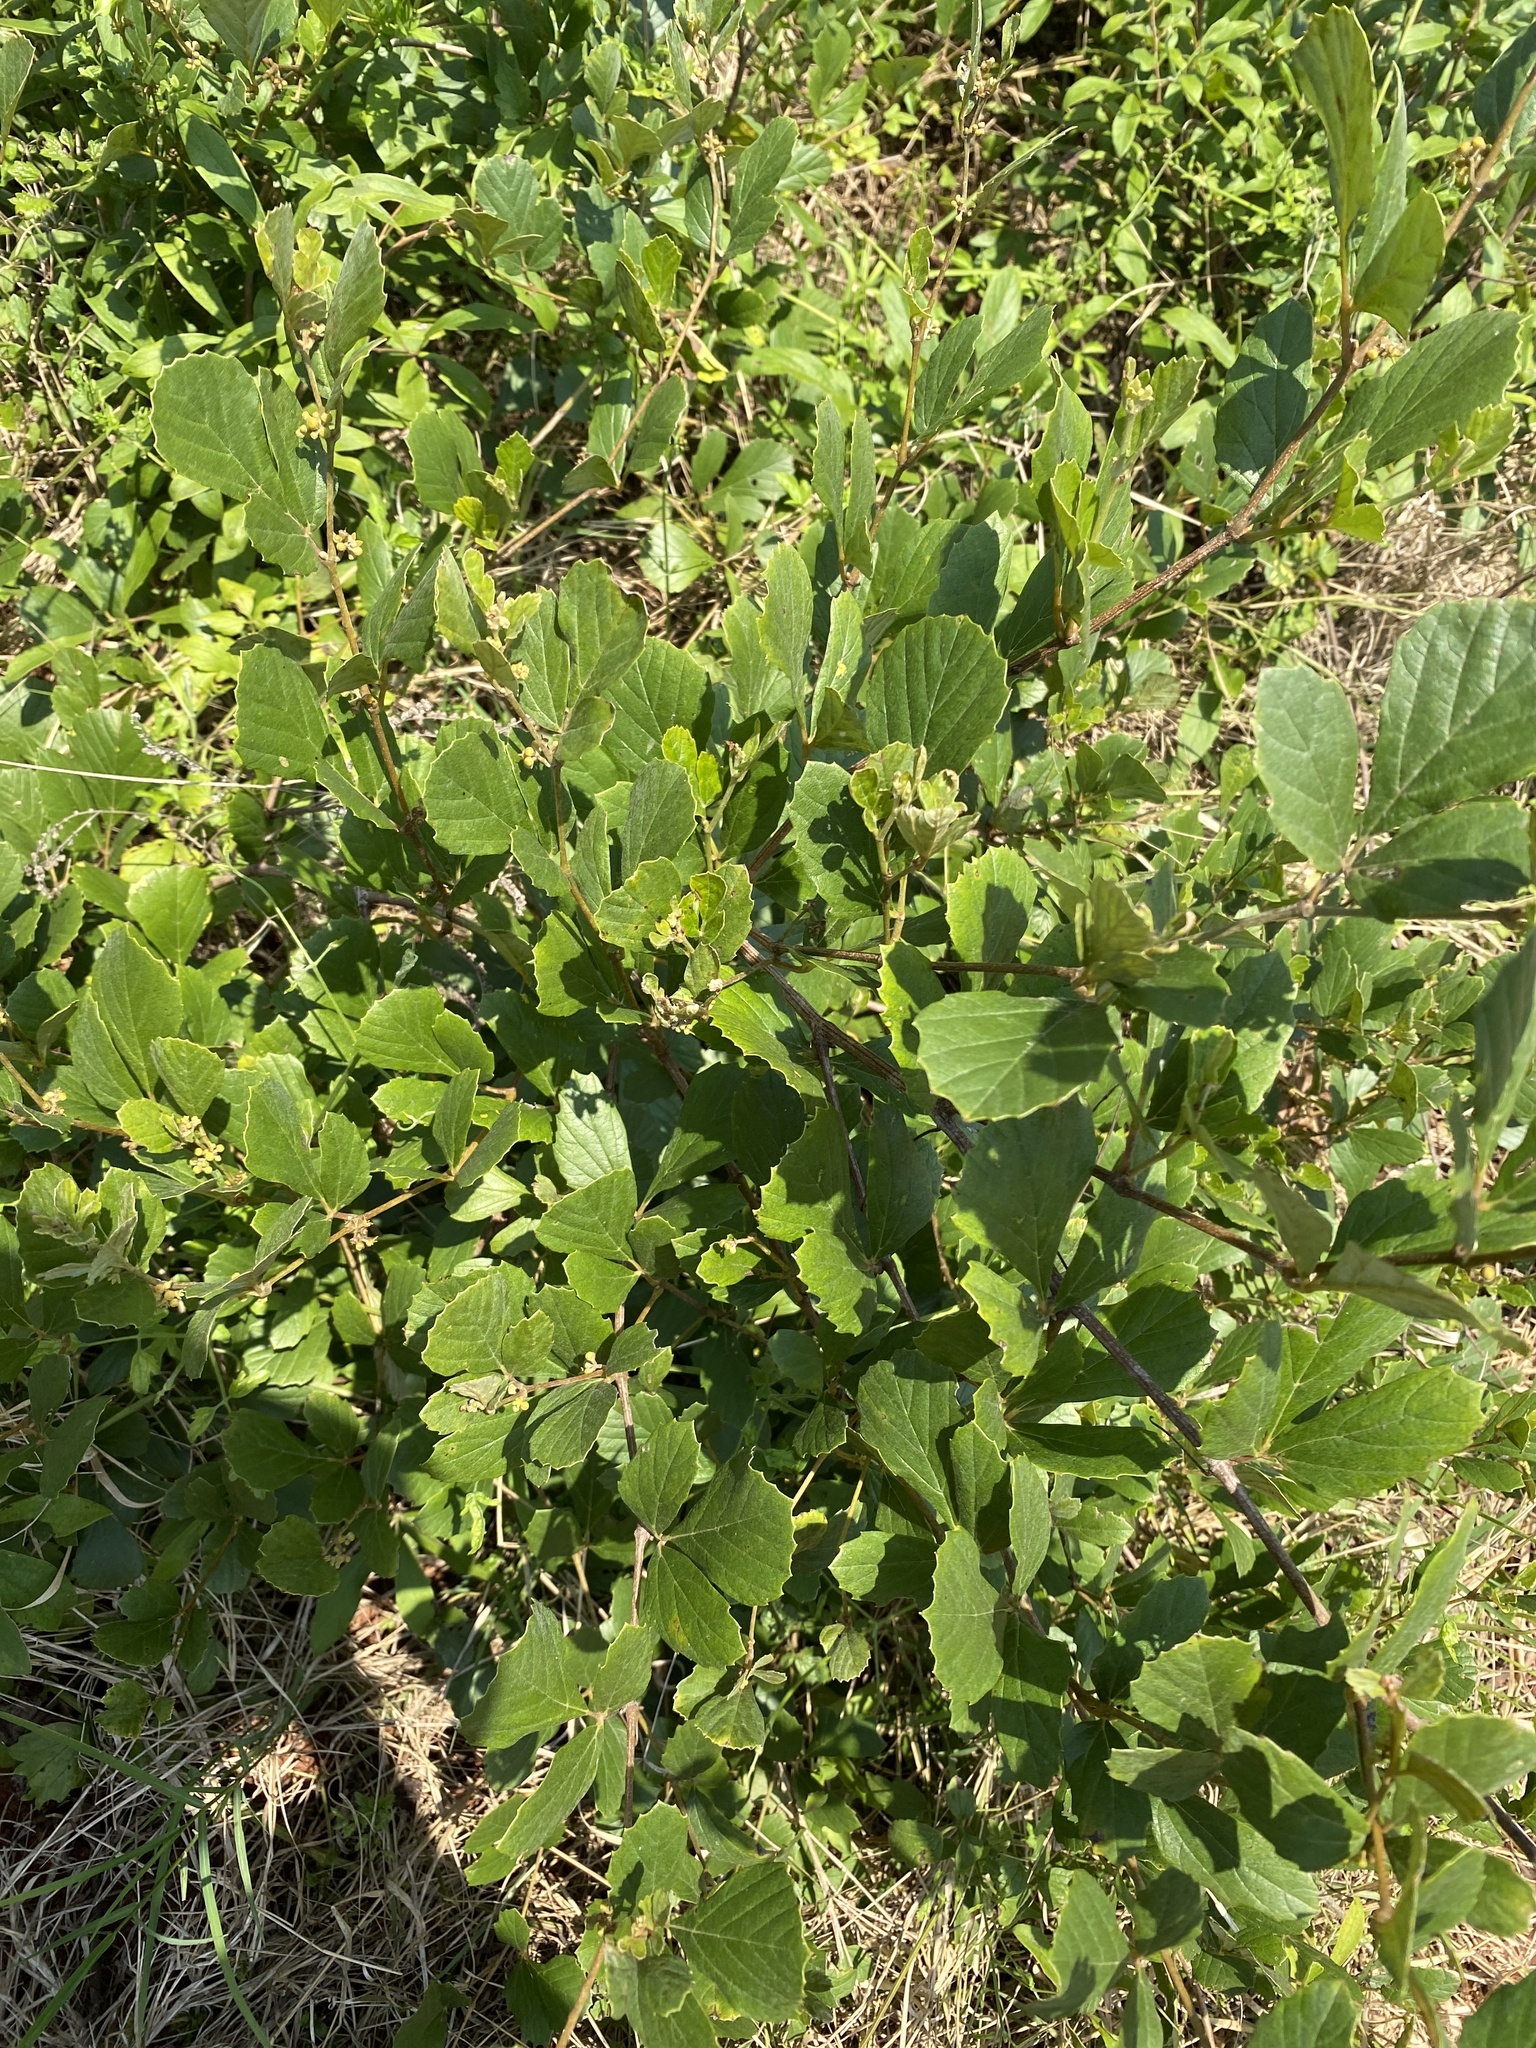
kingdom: Plantae
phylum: Tracheophyta
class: Magnoliopsida
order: Vitales
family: Vitaceae
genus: Rhoicissus
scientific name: Rhoicissus tridentata
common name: Common forest grape
